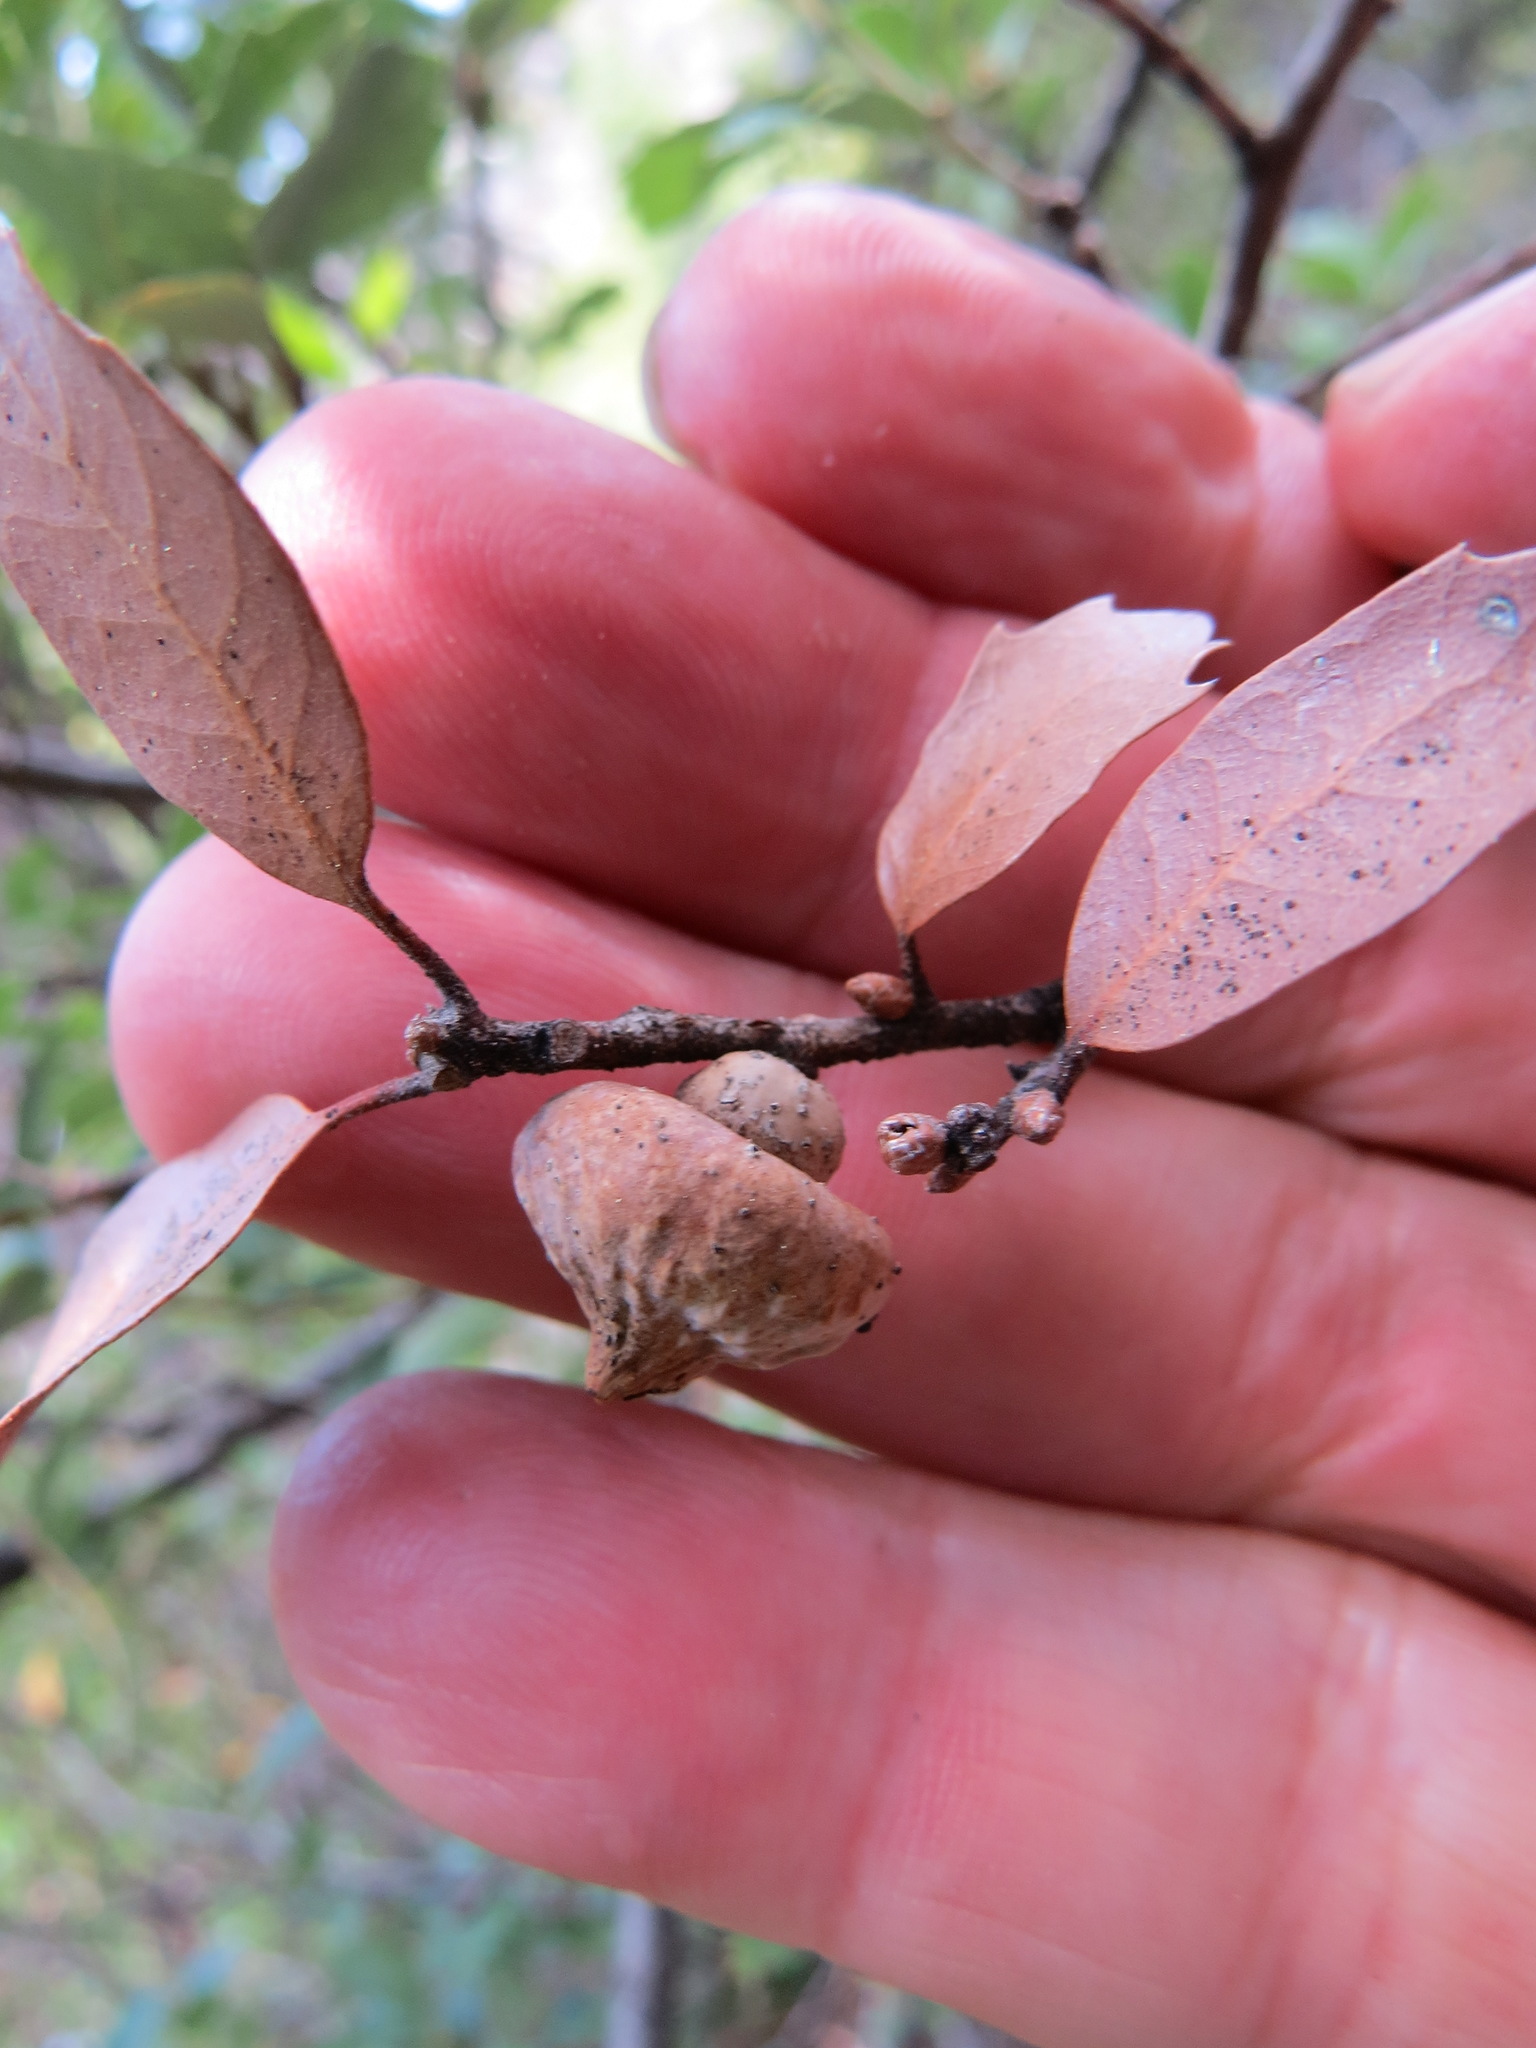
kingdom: Animalia
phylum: Arthropoda
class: Insecta
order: Hymenoptera
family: Cynipidae
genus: Heteroecus
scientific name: Heteroecus
